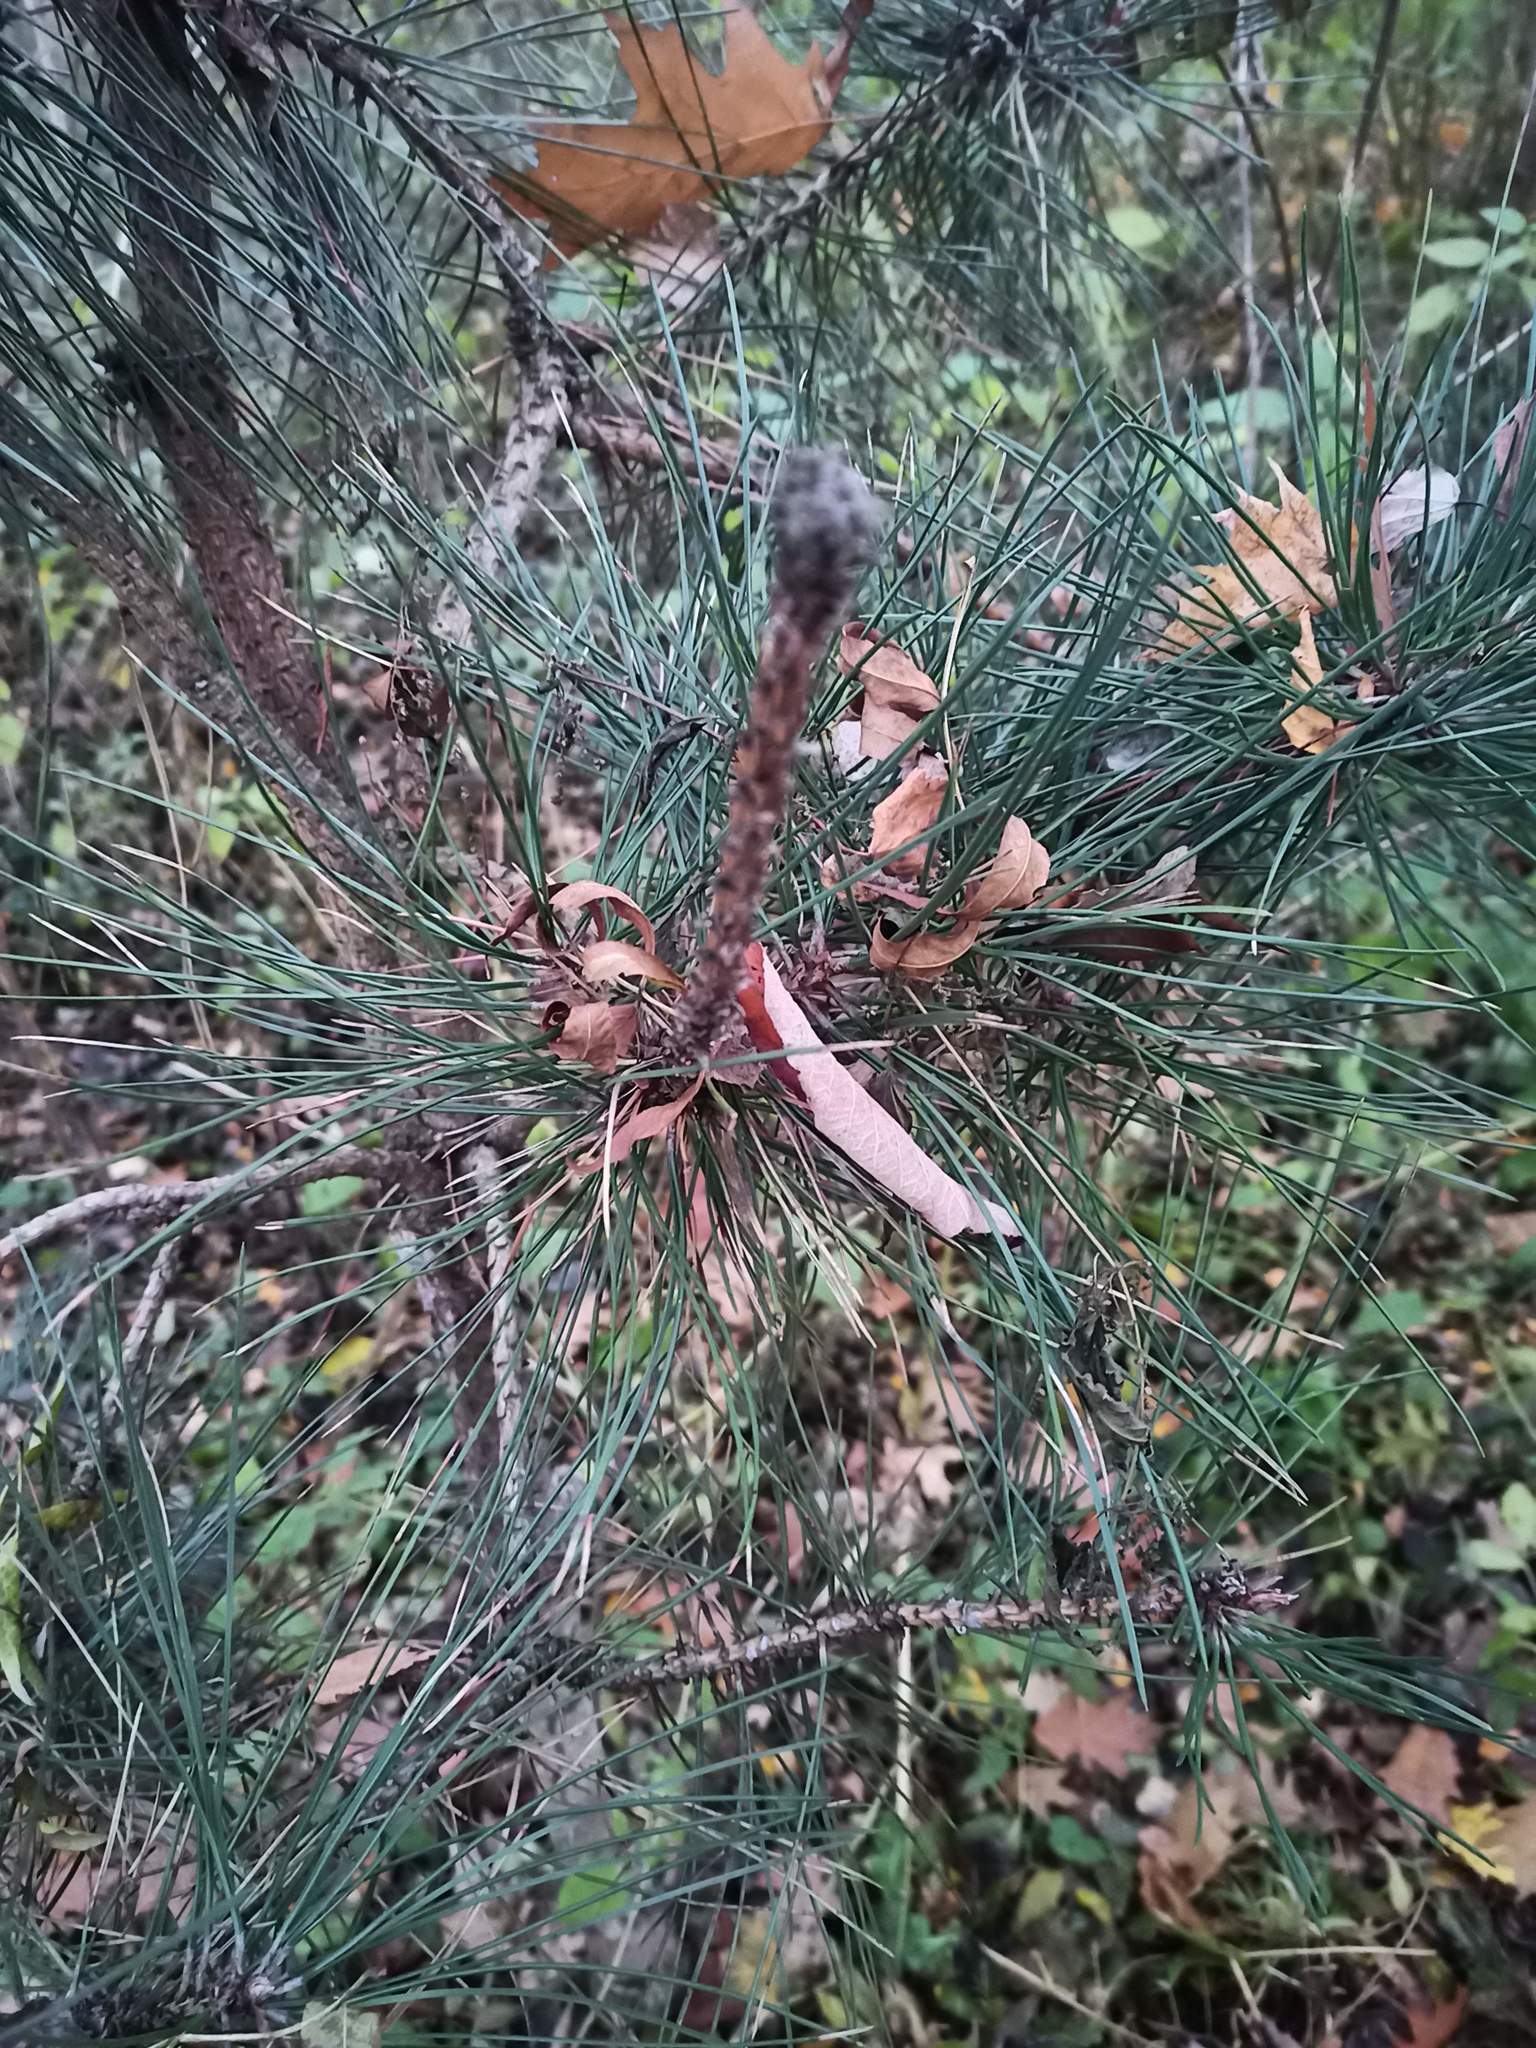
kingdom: Plantae
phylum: Tracheophyta
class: Pinopsida
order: Pinales
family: Pinaceae
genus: Pinus
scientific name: Pinus sylvestris
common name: Scots pine
